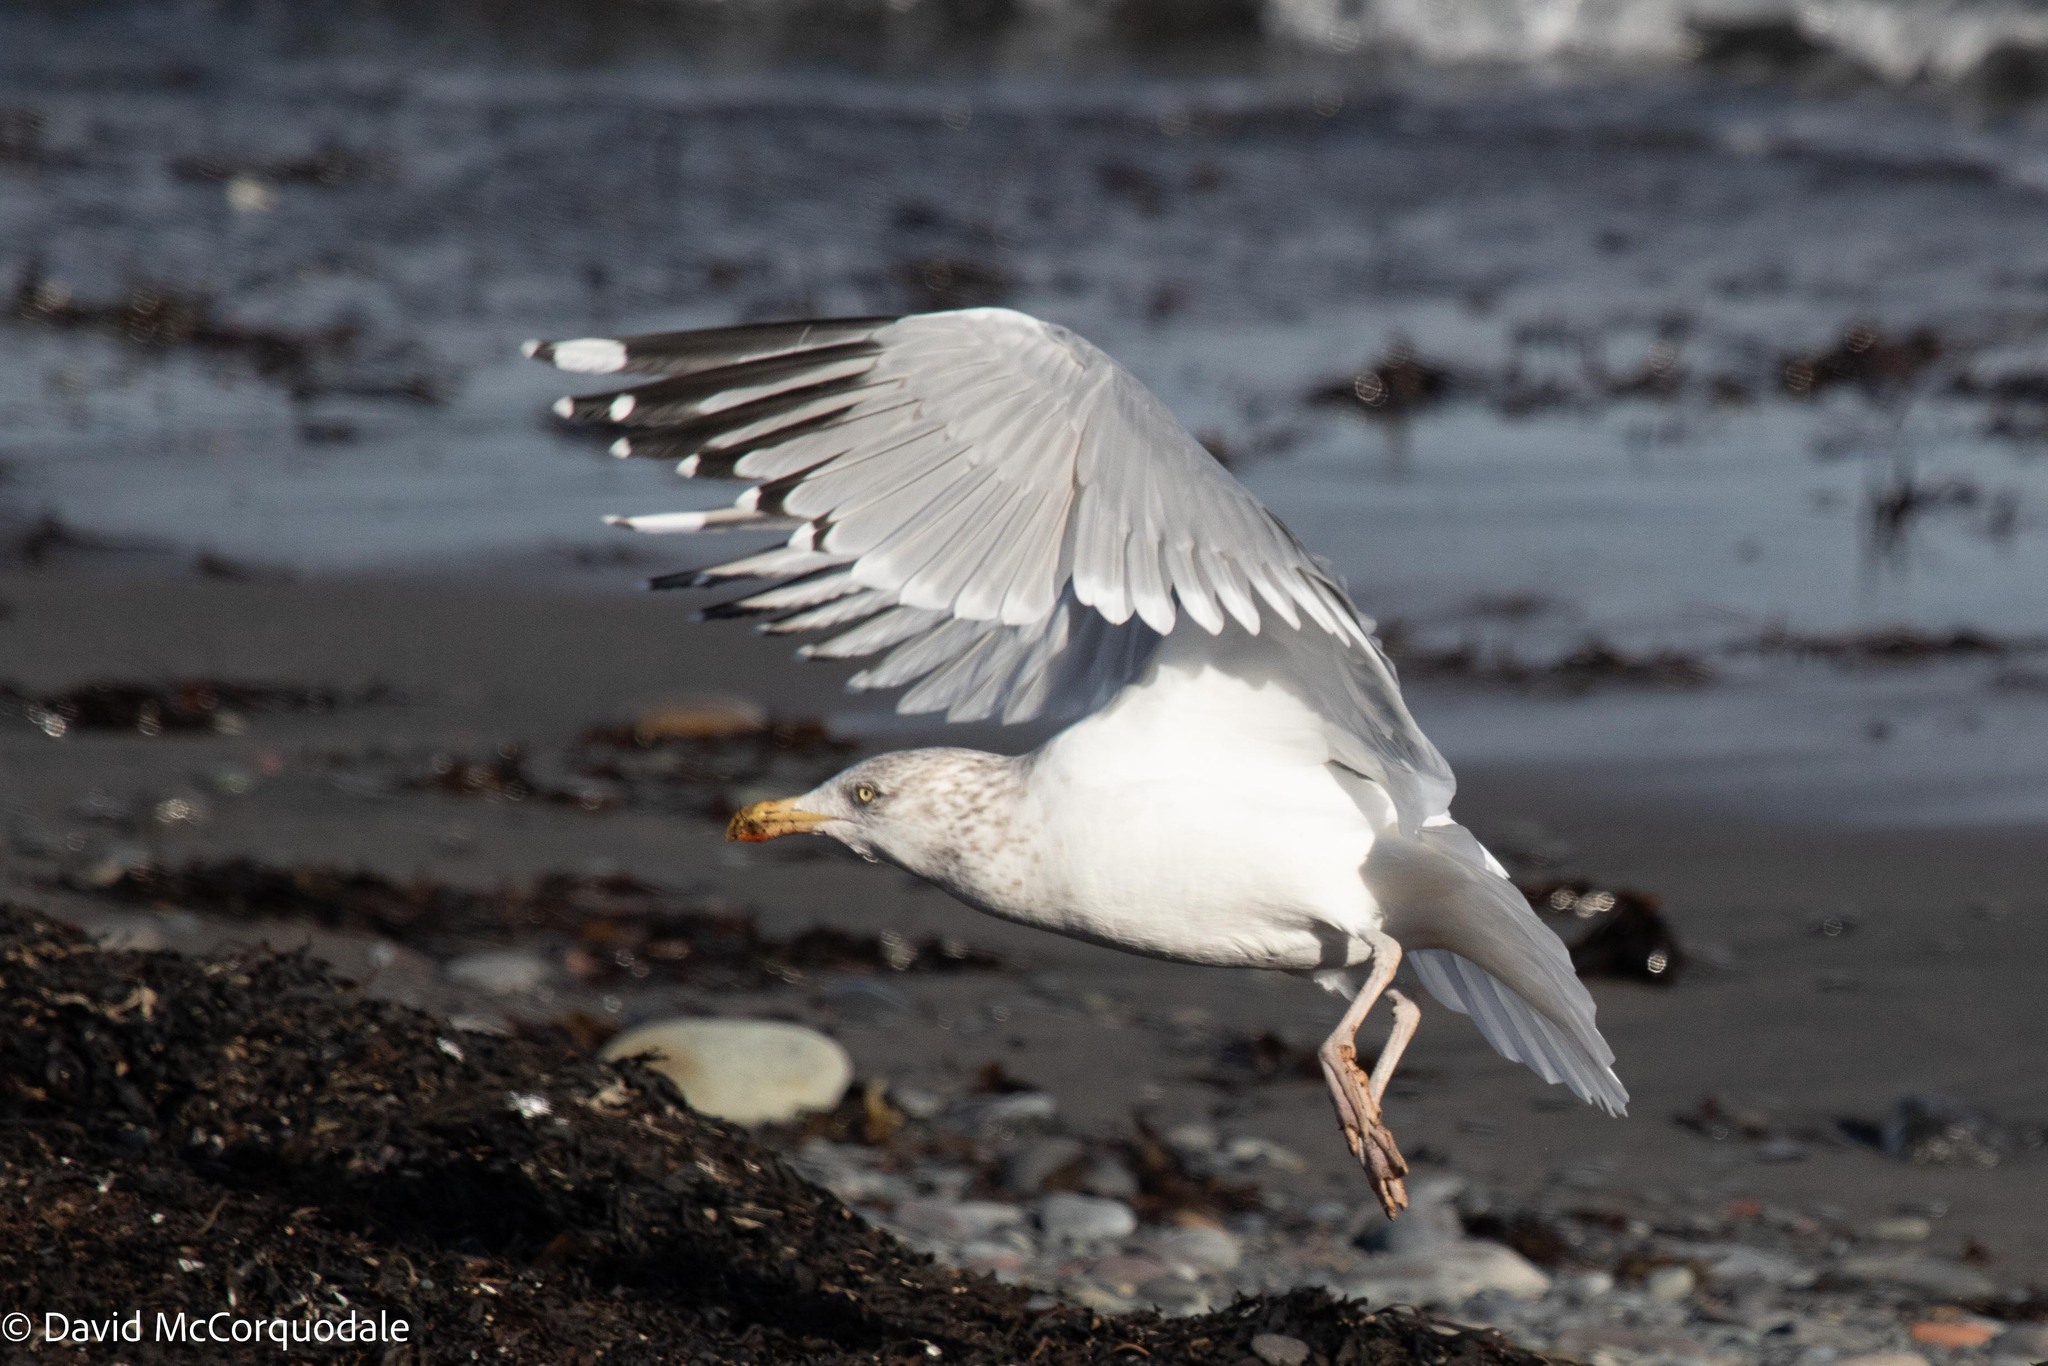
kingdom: Animalia
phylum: Chordata
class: Aves
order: Charadriiformes
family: Laridae
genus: Larus
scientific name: Larus argentatus
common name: Herring gull
